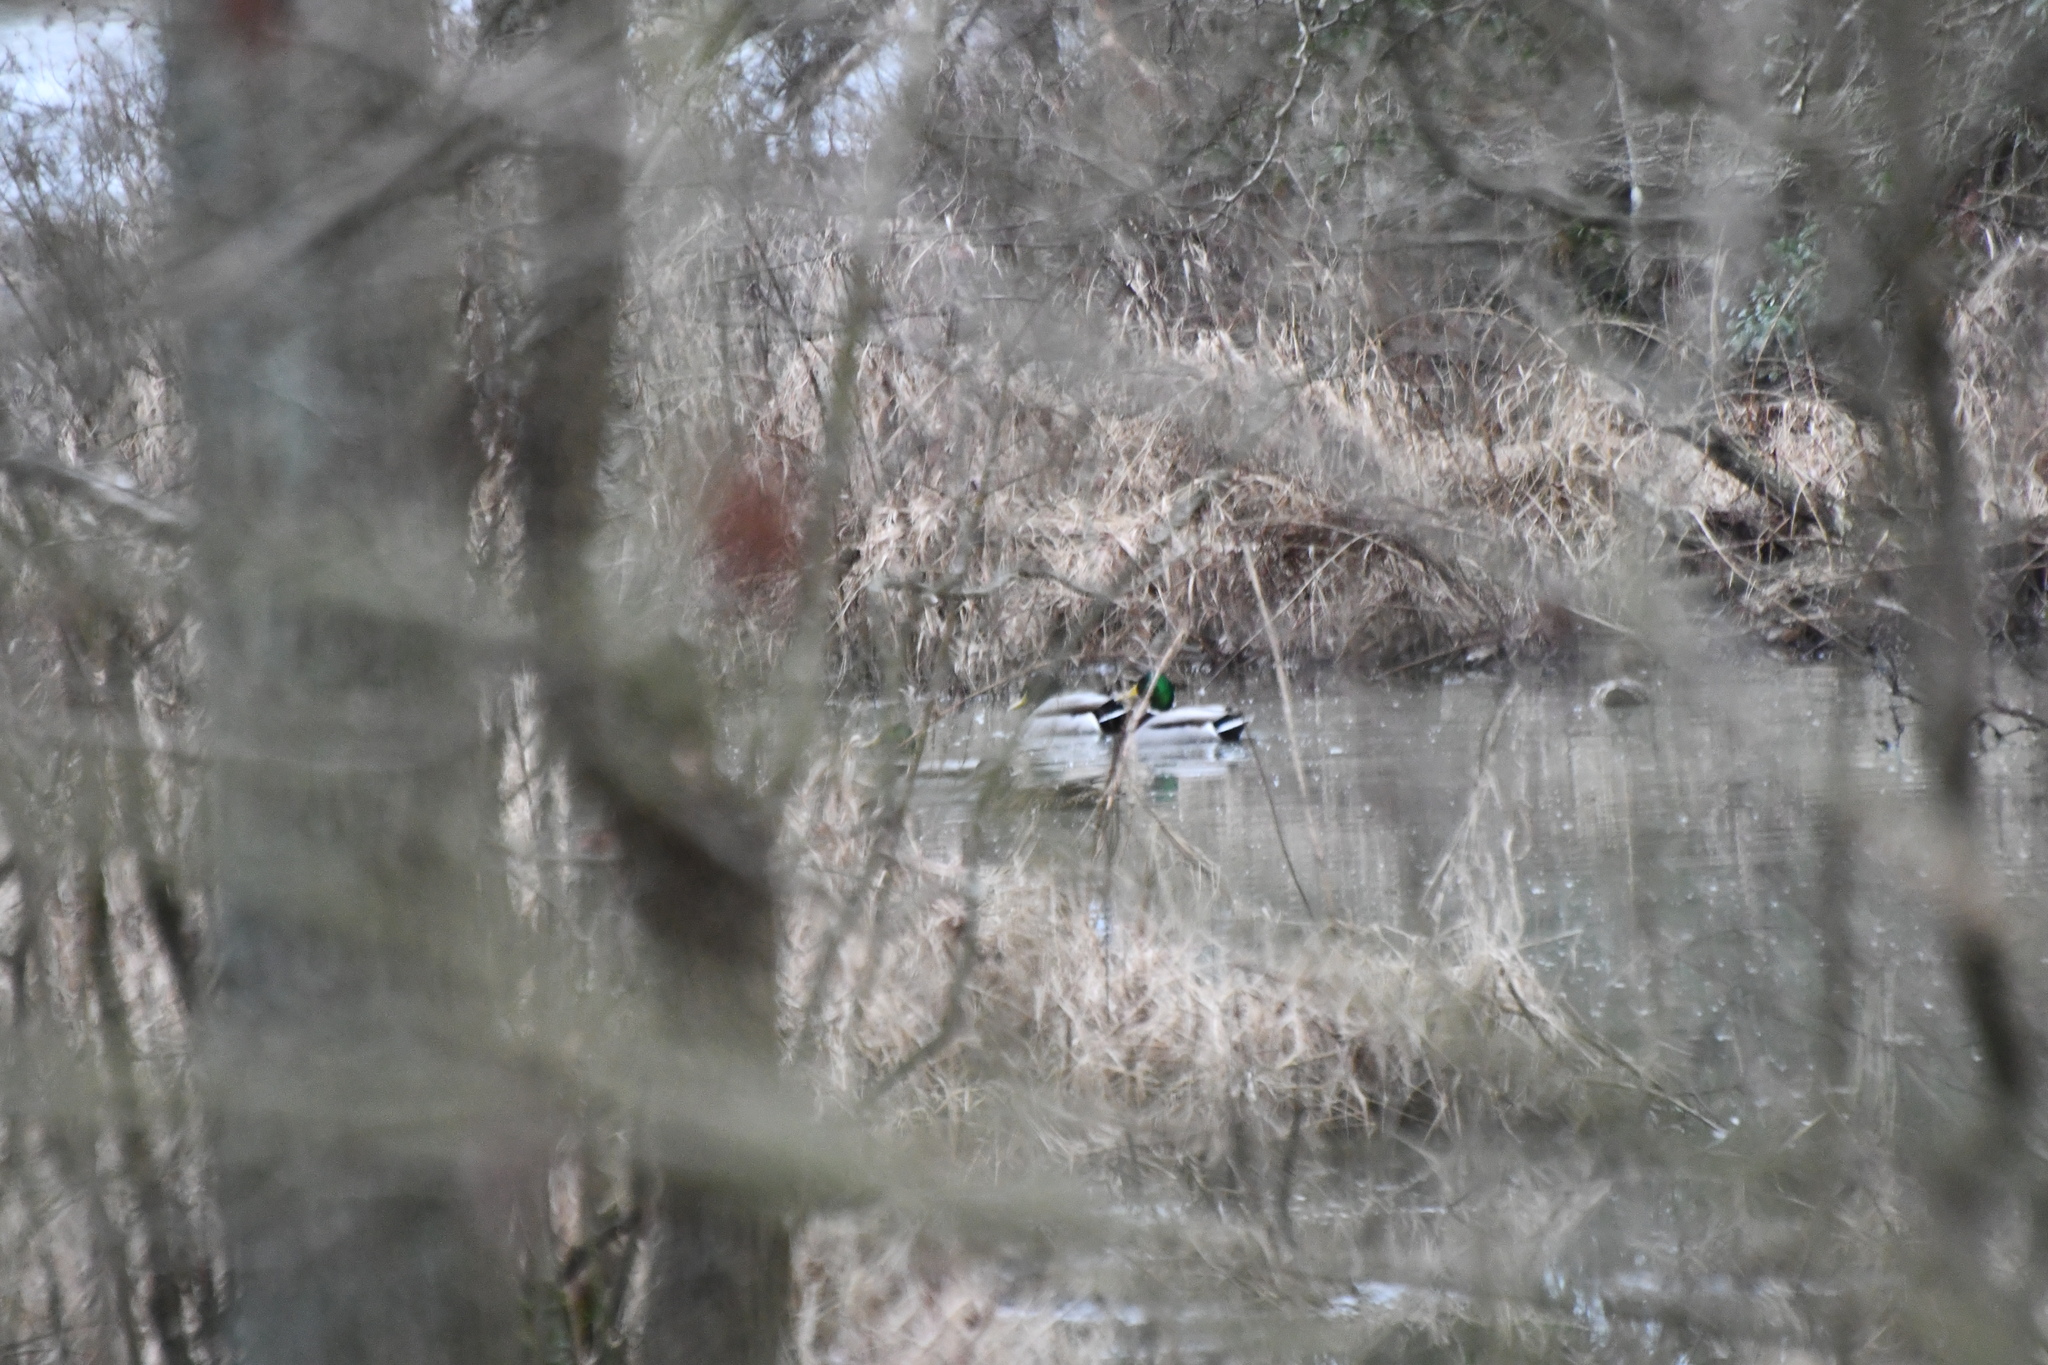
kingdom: Animalia
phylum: Chordata
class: Aves
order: Anseriformes
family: Anatidae
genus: Anas
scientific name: Anas platyrhynchos
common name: Mallard
